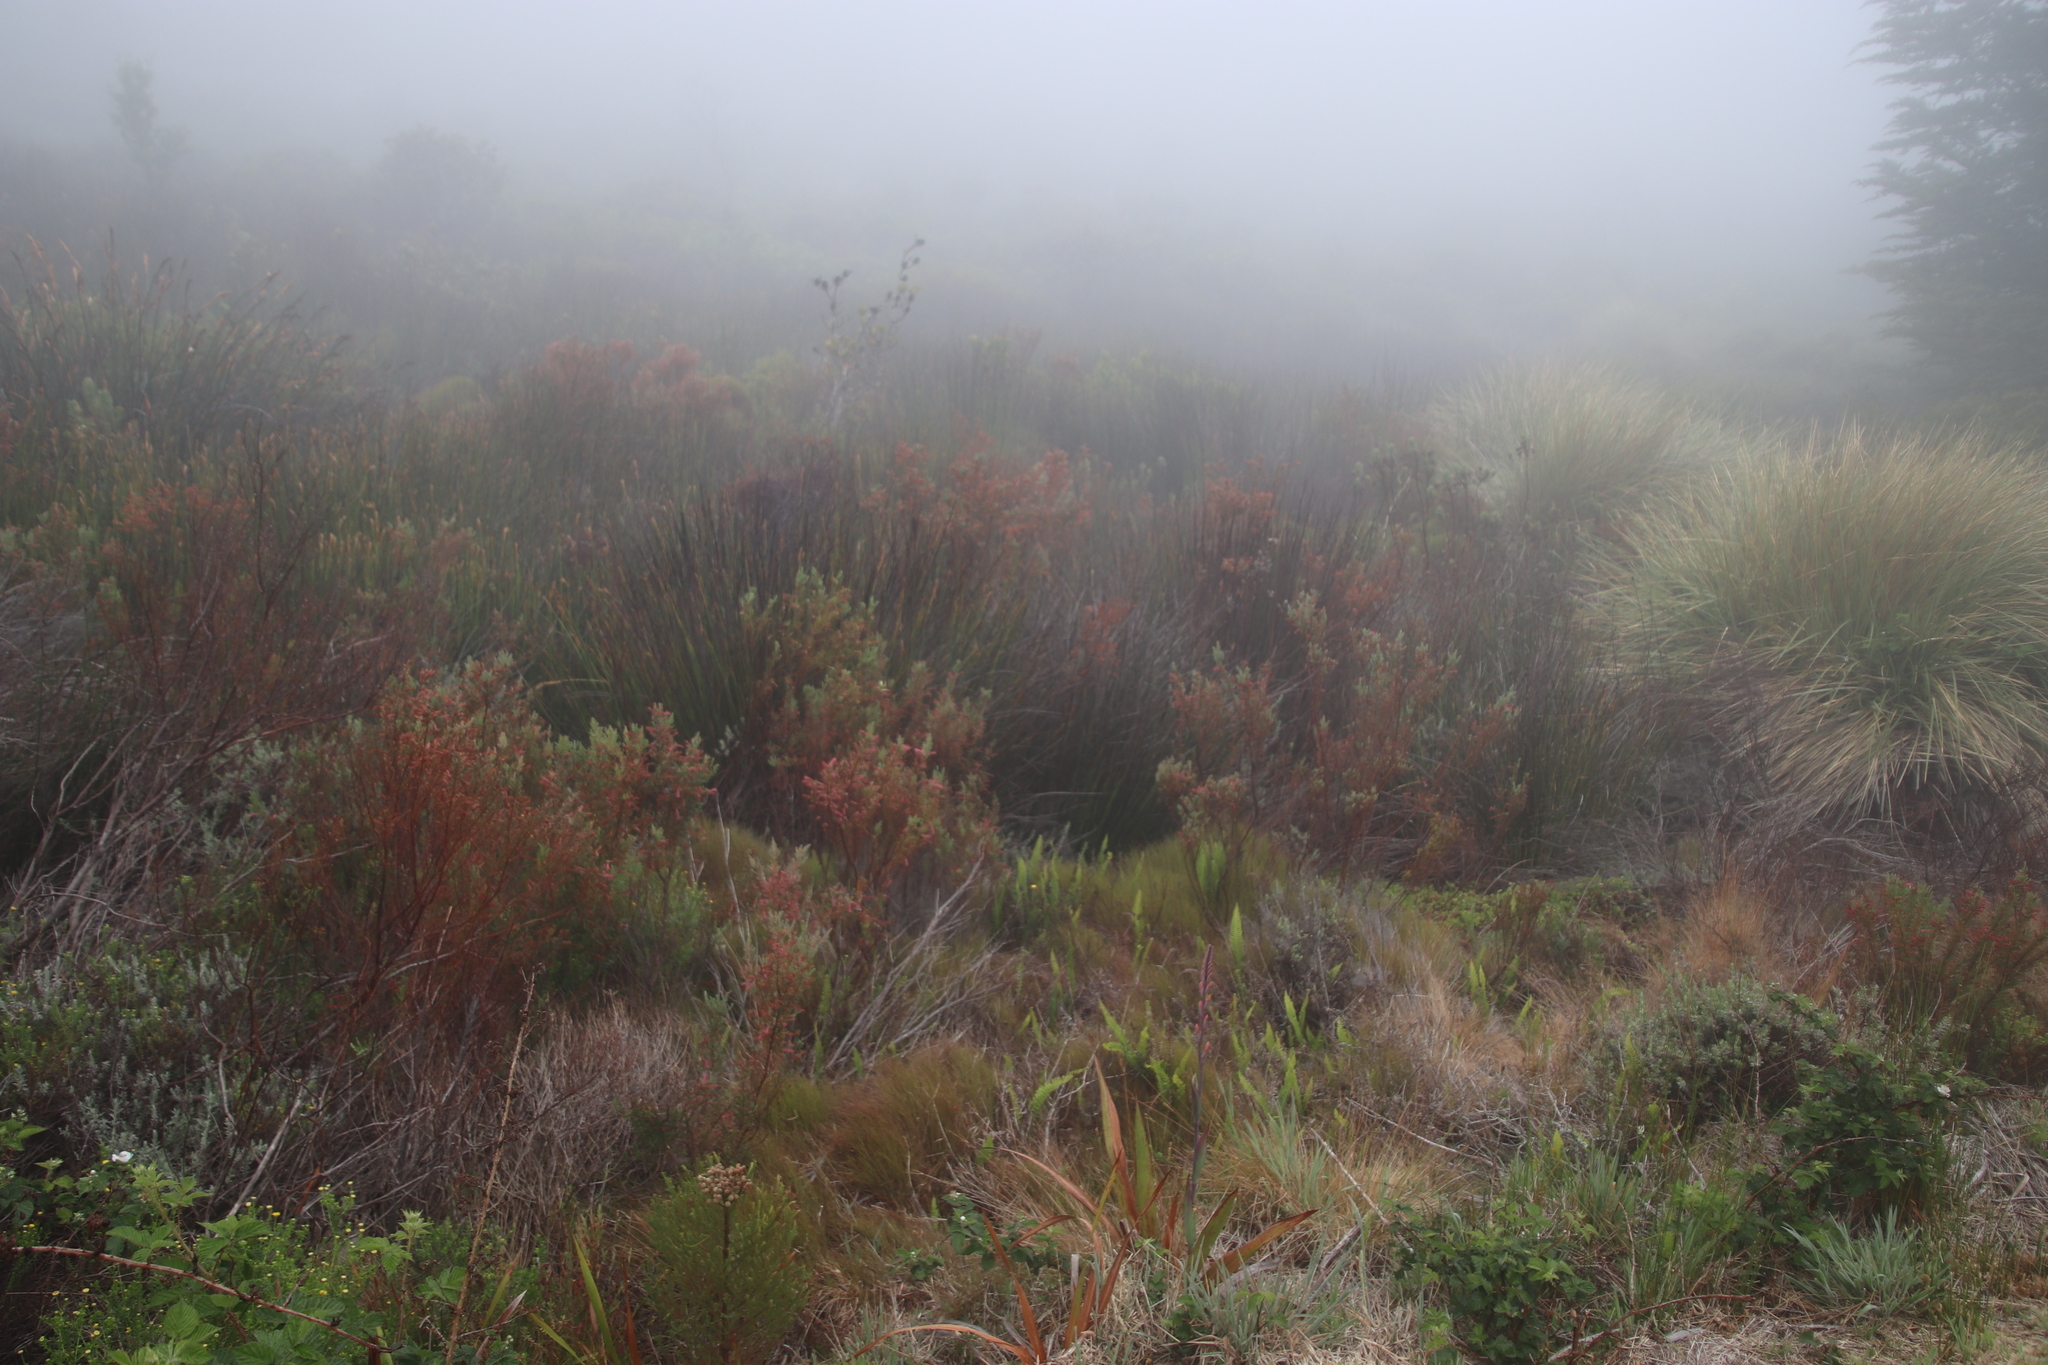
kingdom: Plantae
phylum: Tracheophyta
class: Magnoliopsida
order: Ericales
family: Ericaceae
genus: Erica
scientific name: Erica curviflora
